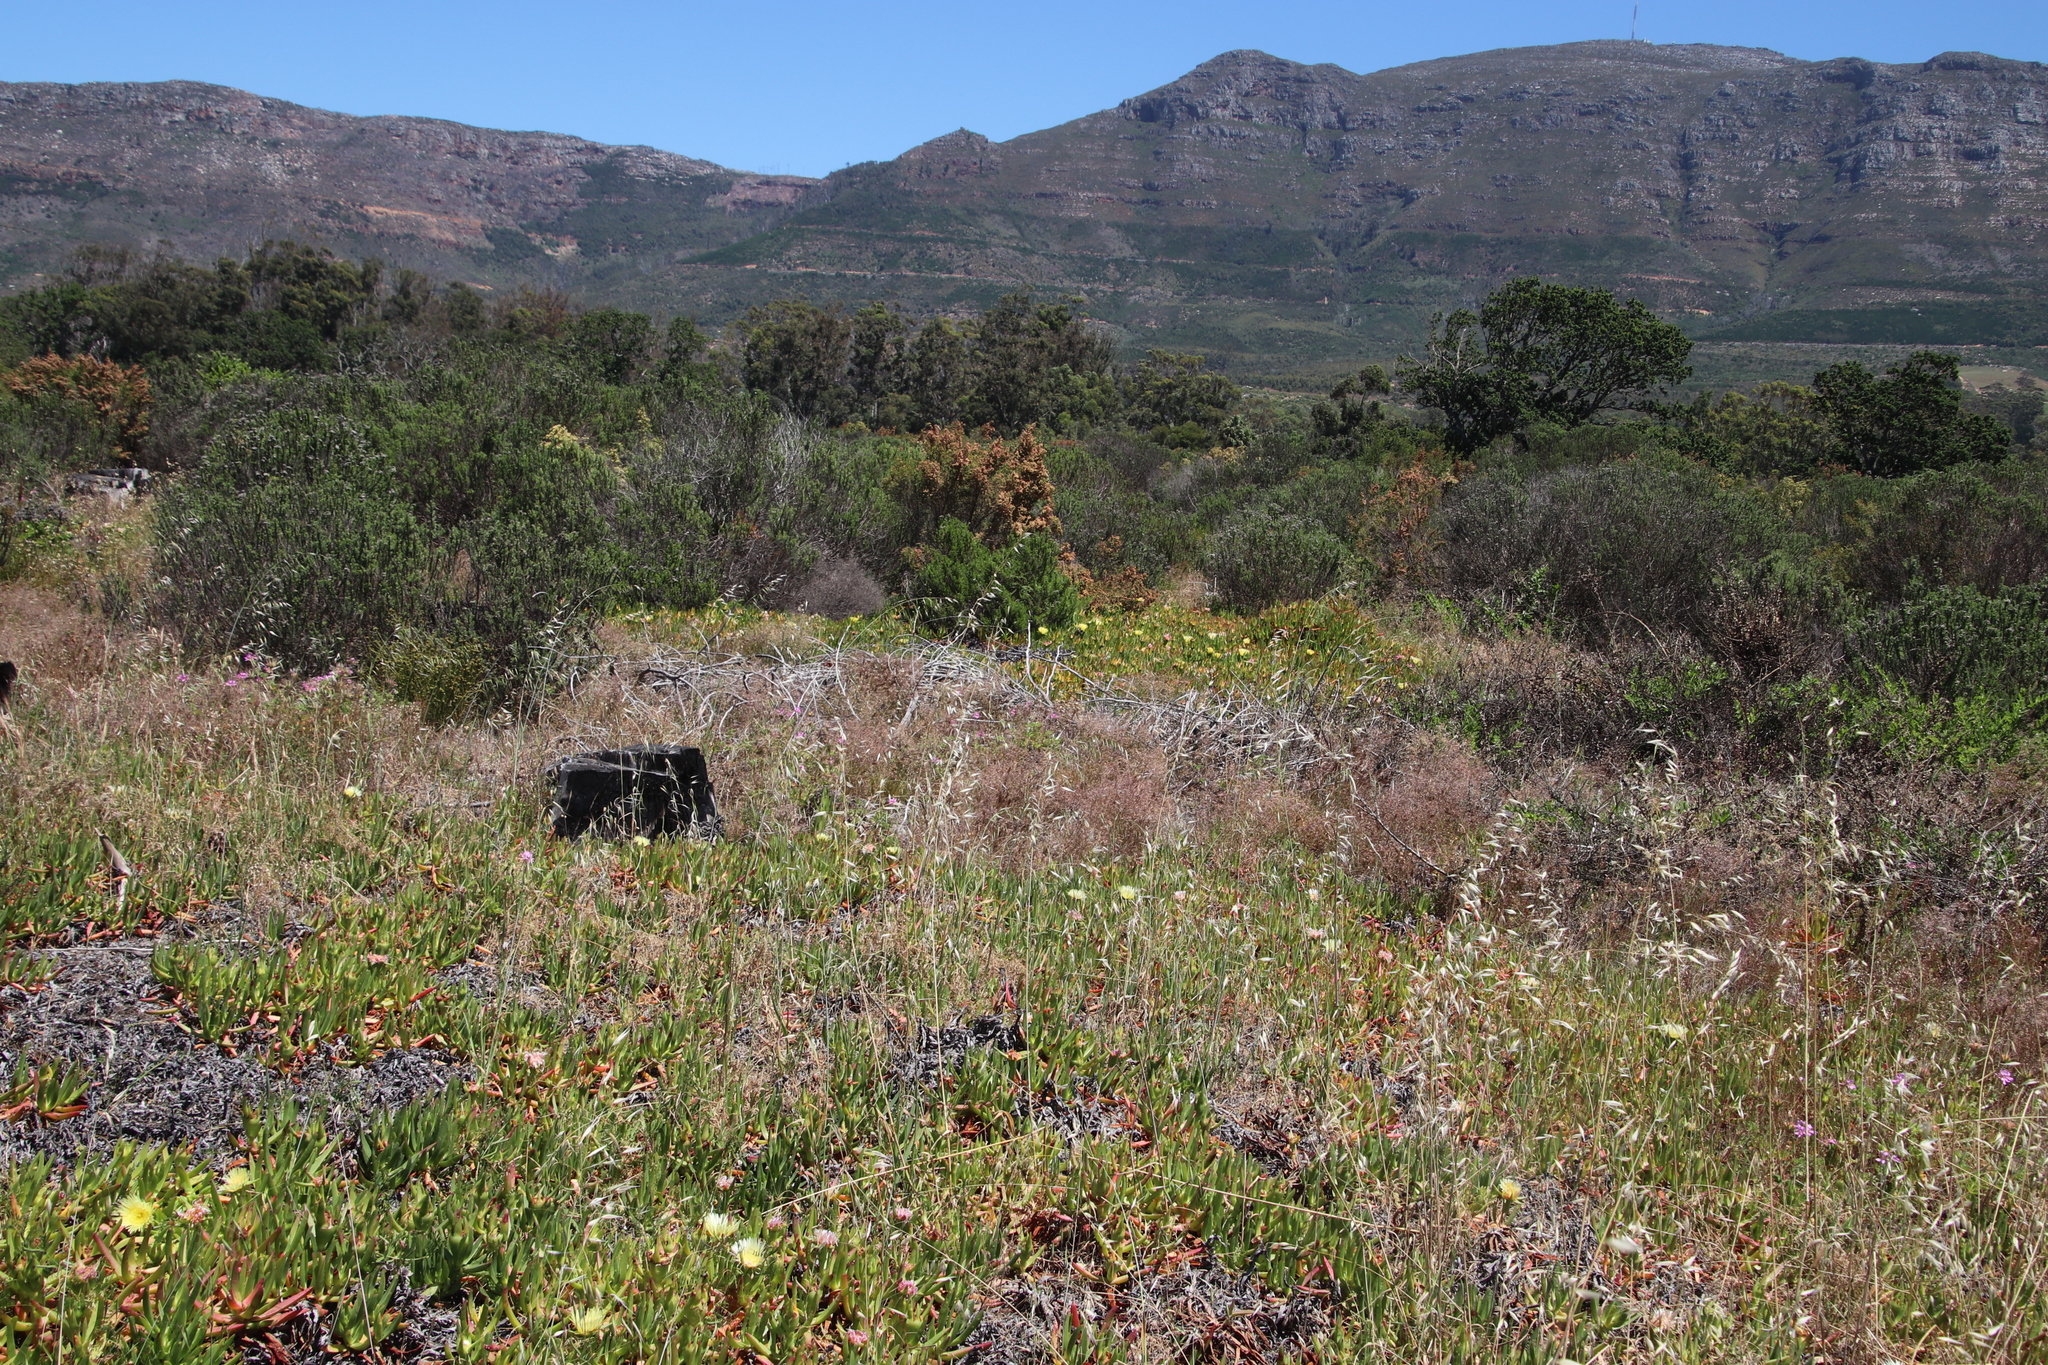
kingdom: Plantae
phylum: Tracheophyta
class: Liliopsida
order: Poales
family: Poaceae
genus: Avena
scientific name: Avena fatua
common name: Wild oat
